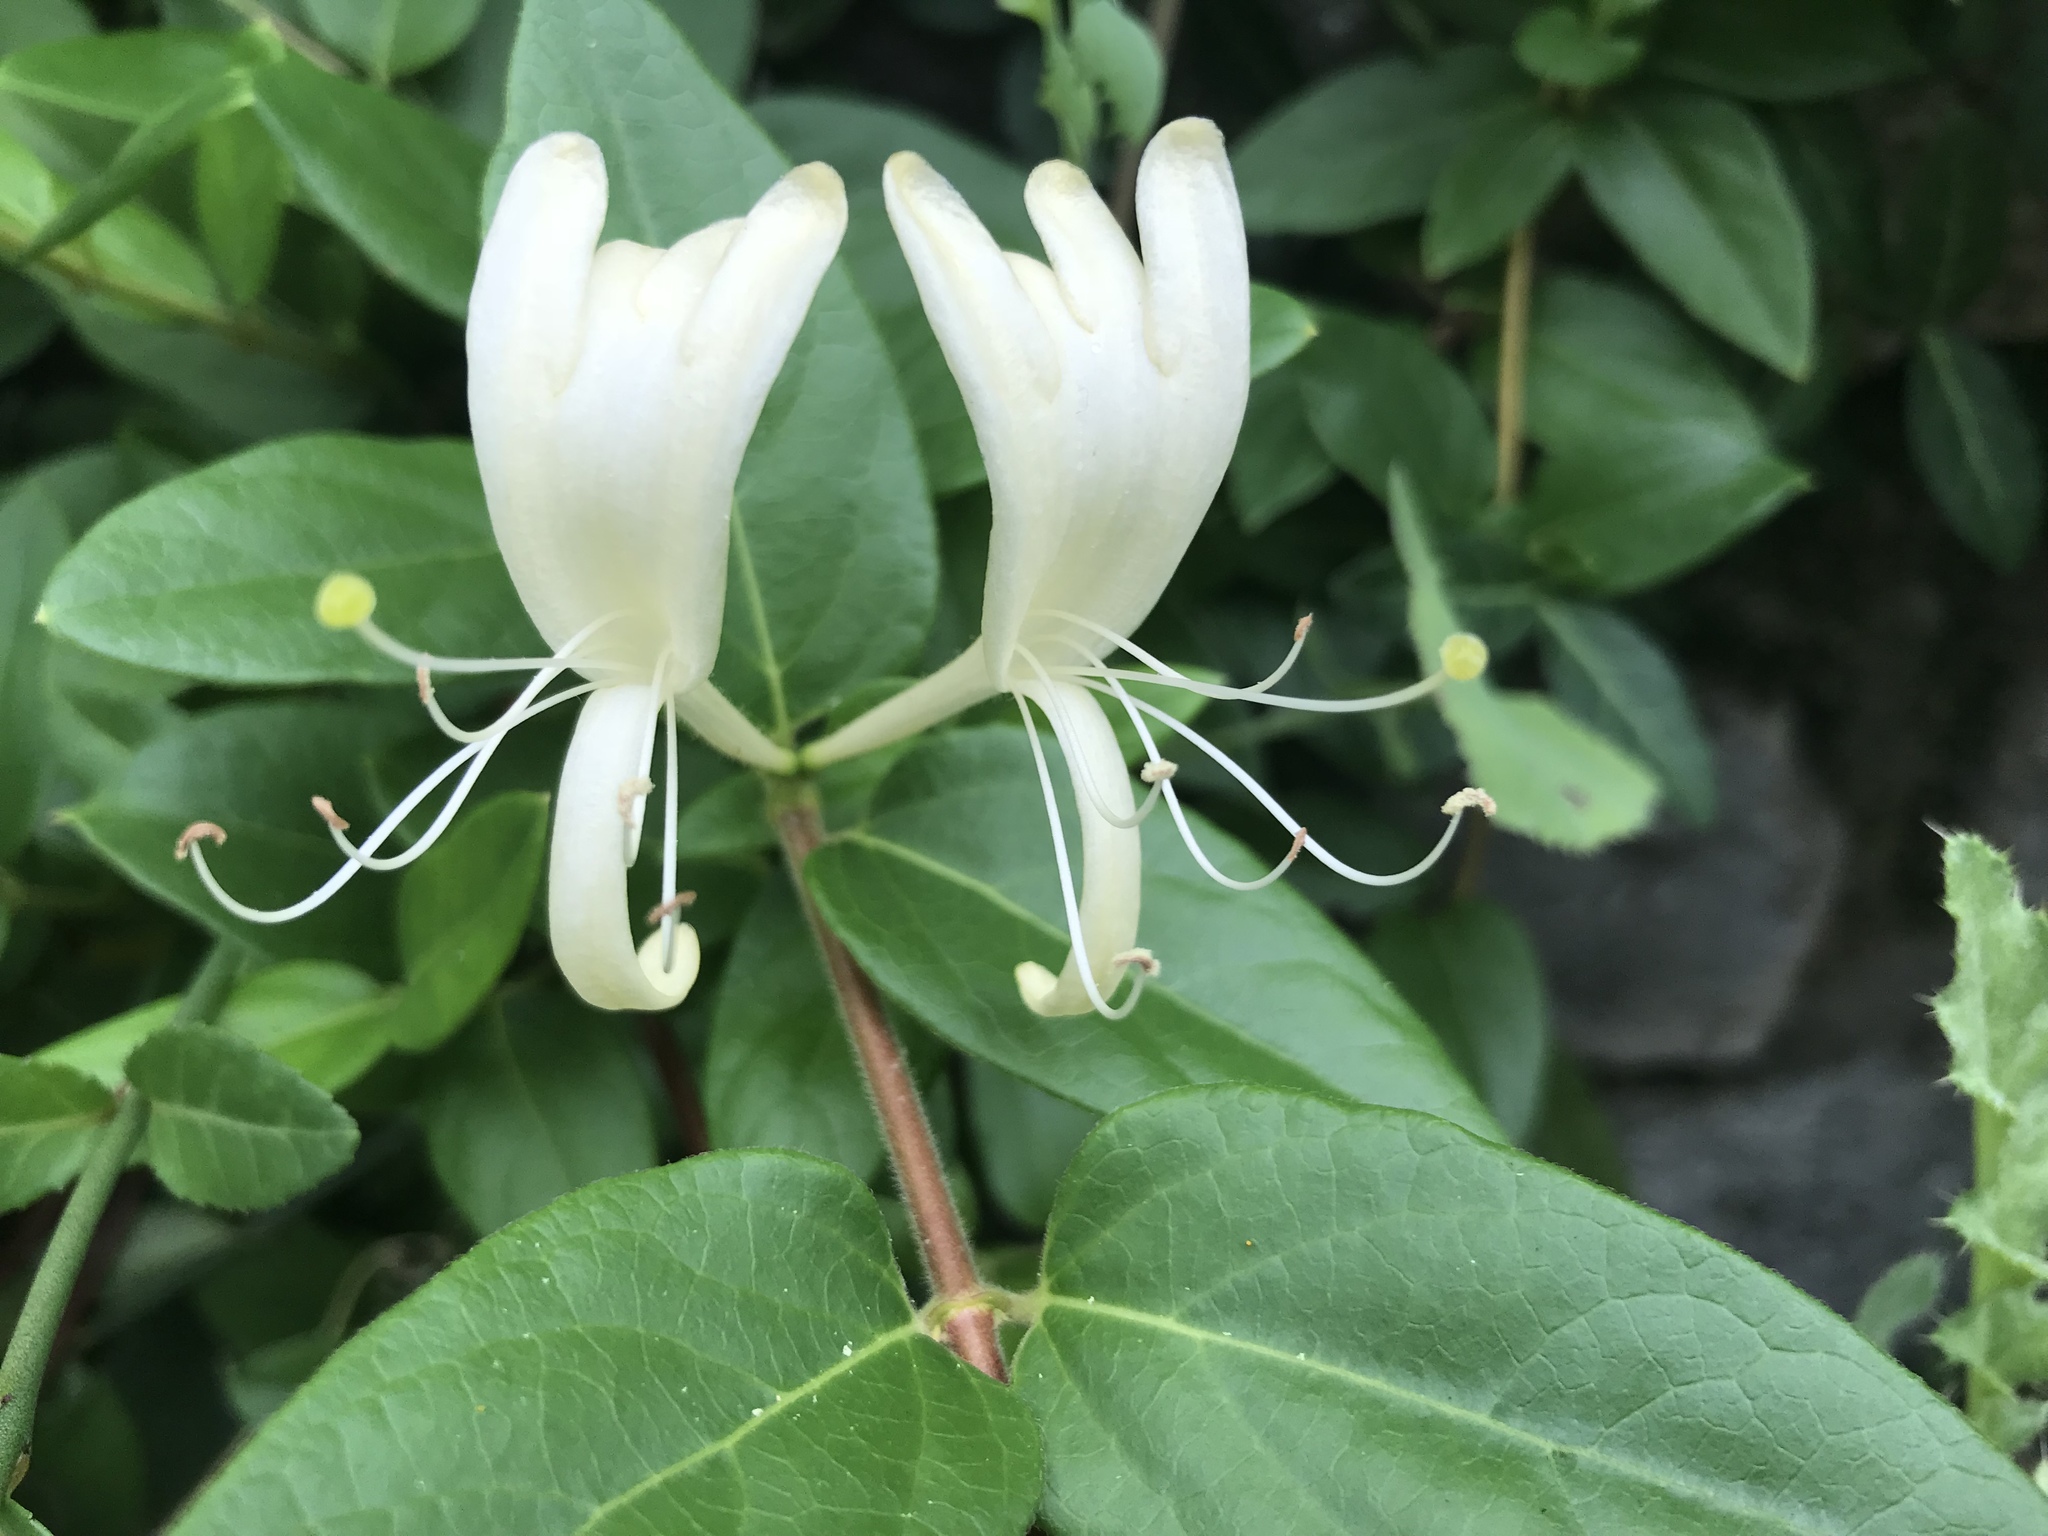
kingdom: Plantae
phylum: Tracheophyta
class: Magnoliopsida
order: Dipsacales
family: Caprifoliaceae
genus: Lonicera
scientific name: Lonicera japonica
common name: Japanese honeysuckle
